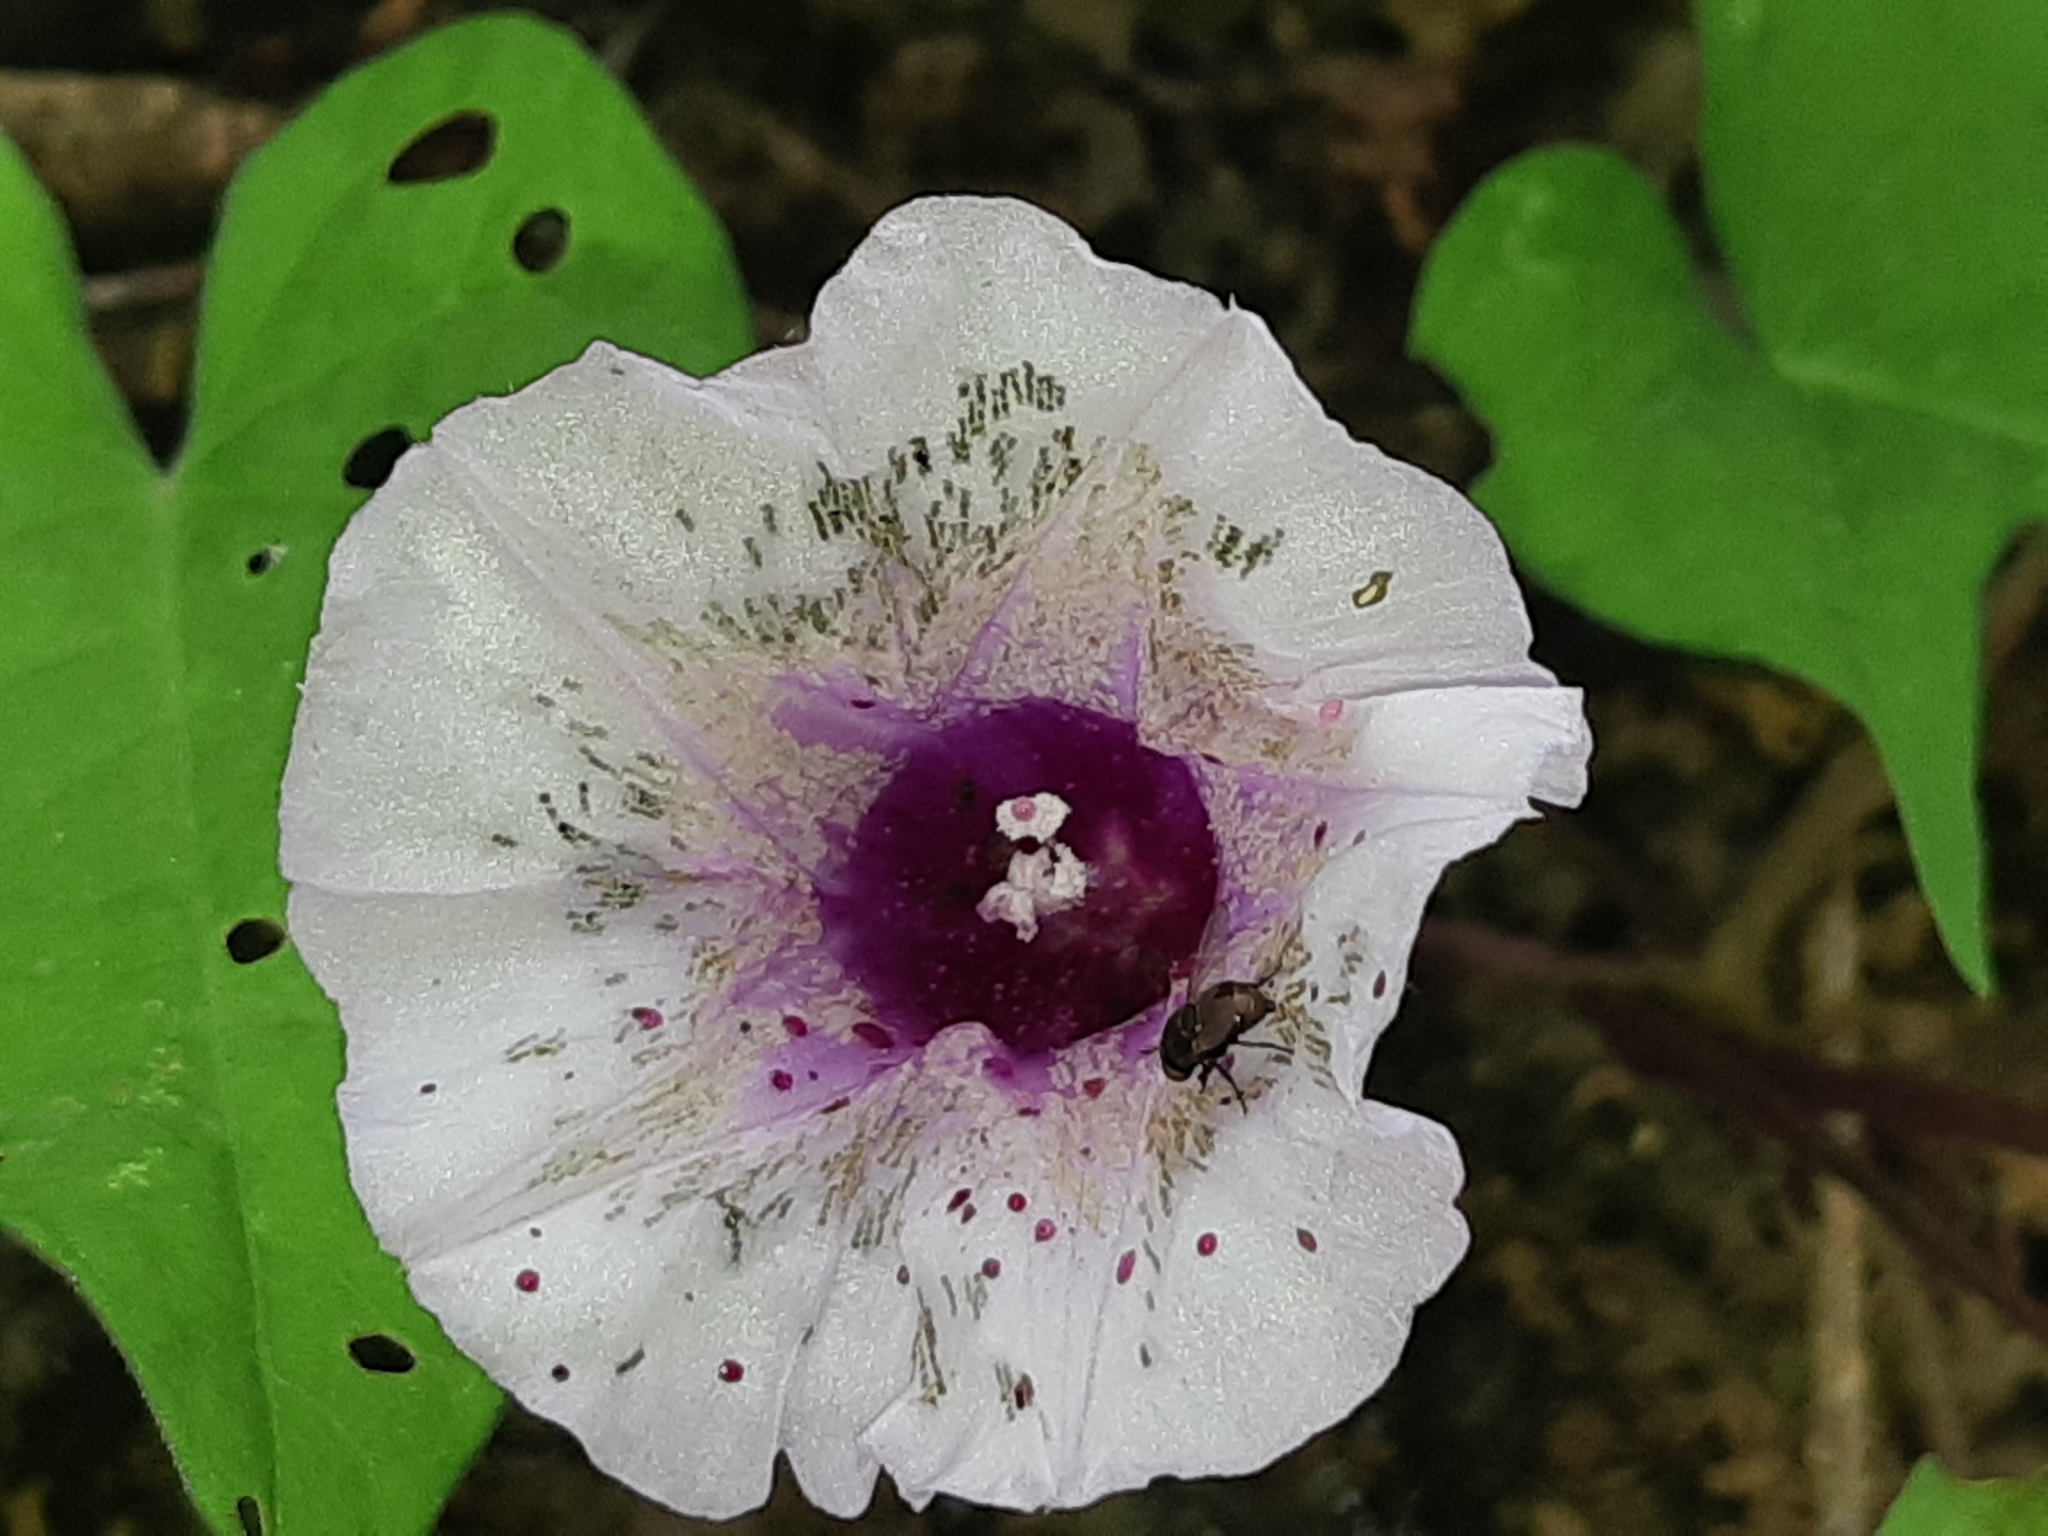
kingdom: Plantae
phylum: Tracheophyta
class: Magnoliopsida
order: Solanales
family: Convolvulaceae
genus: Ipomoea
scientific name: Ipomoea batatas
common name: Sweet-potato
